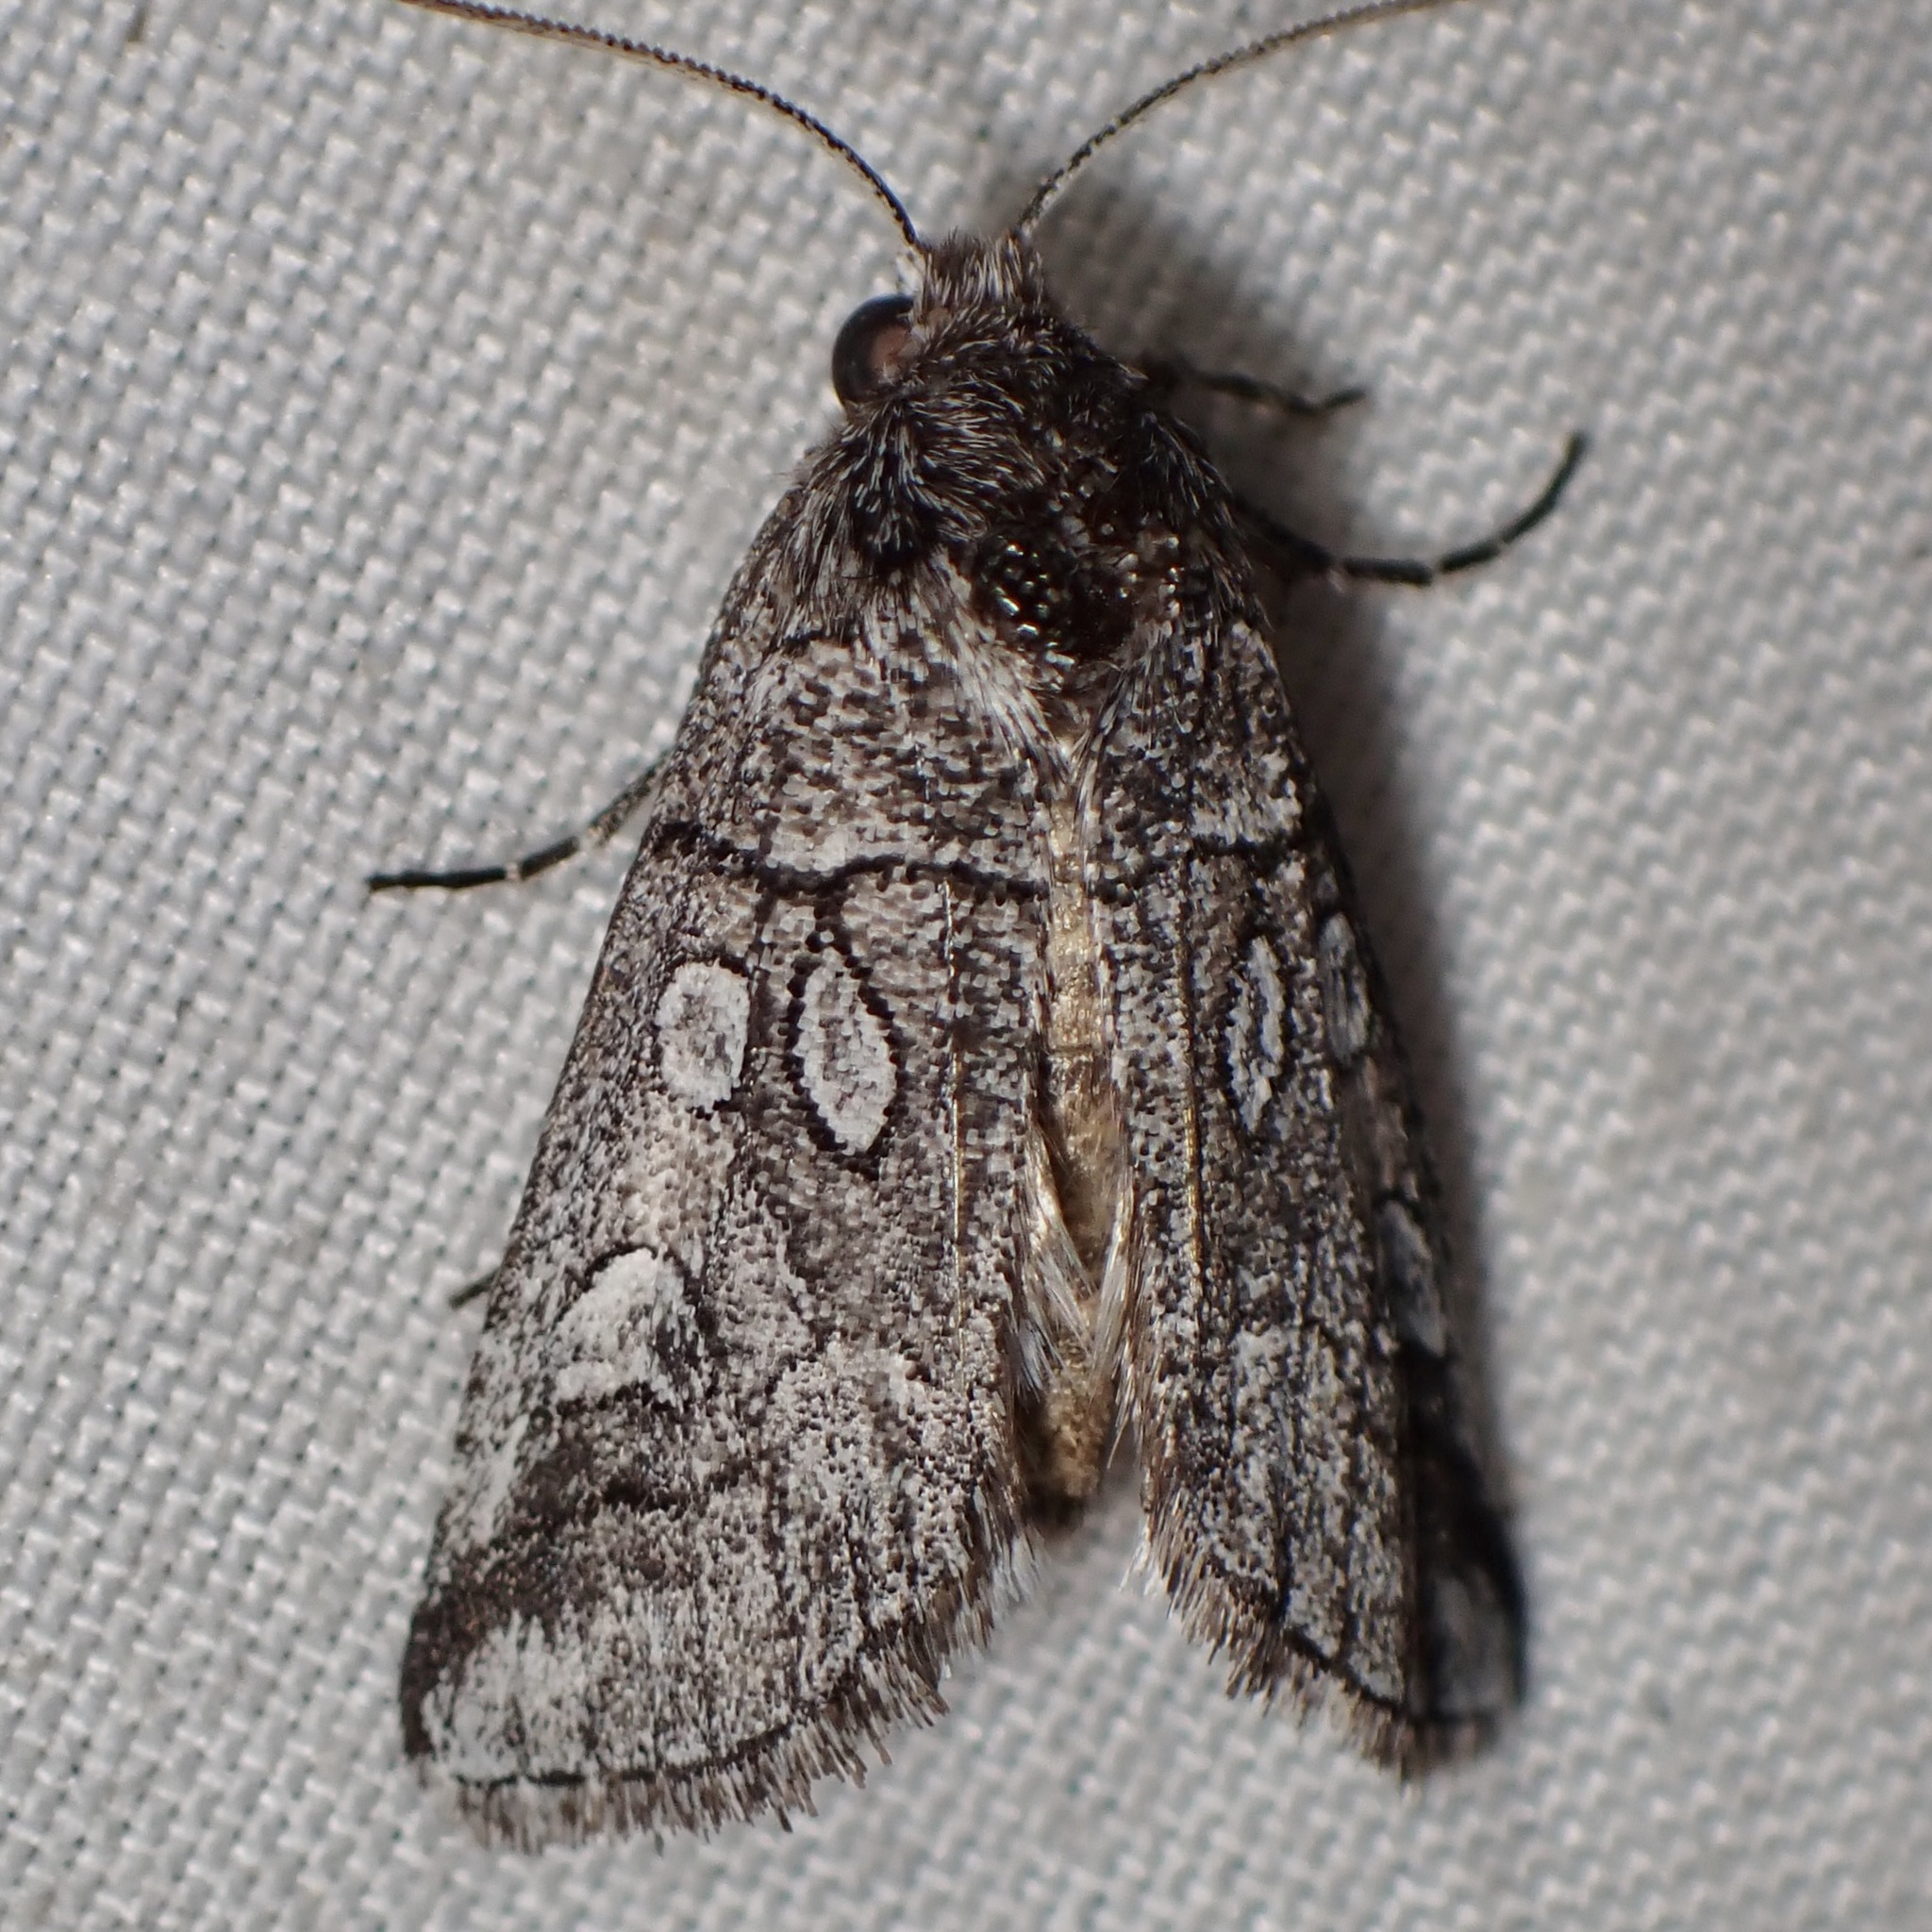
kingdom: Animalia
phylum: Arthropoda
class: Insecta
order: Lepidoptera
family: Noctuidae
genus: Oxycnemis
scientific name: Oxycnemis advena
